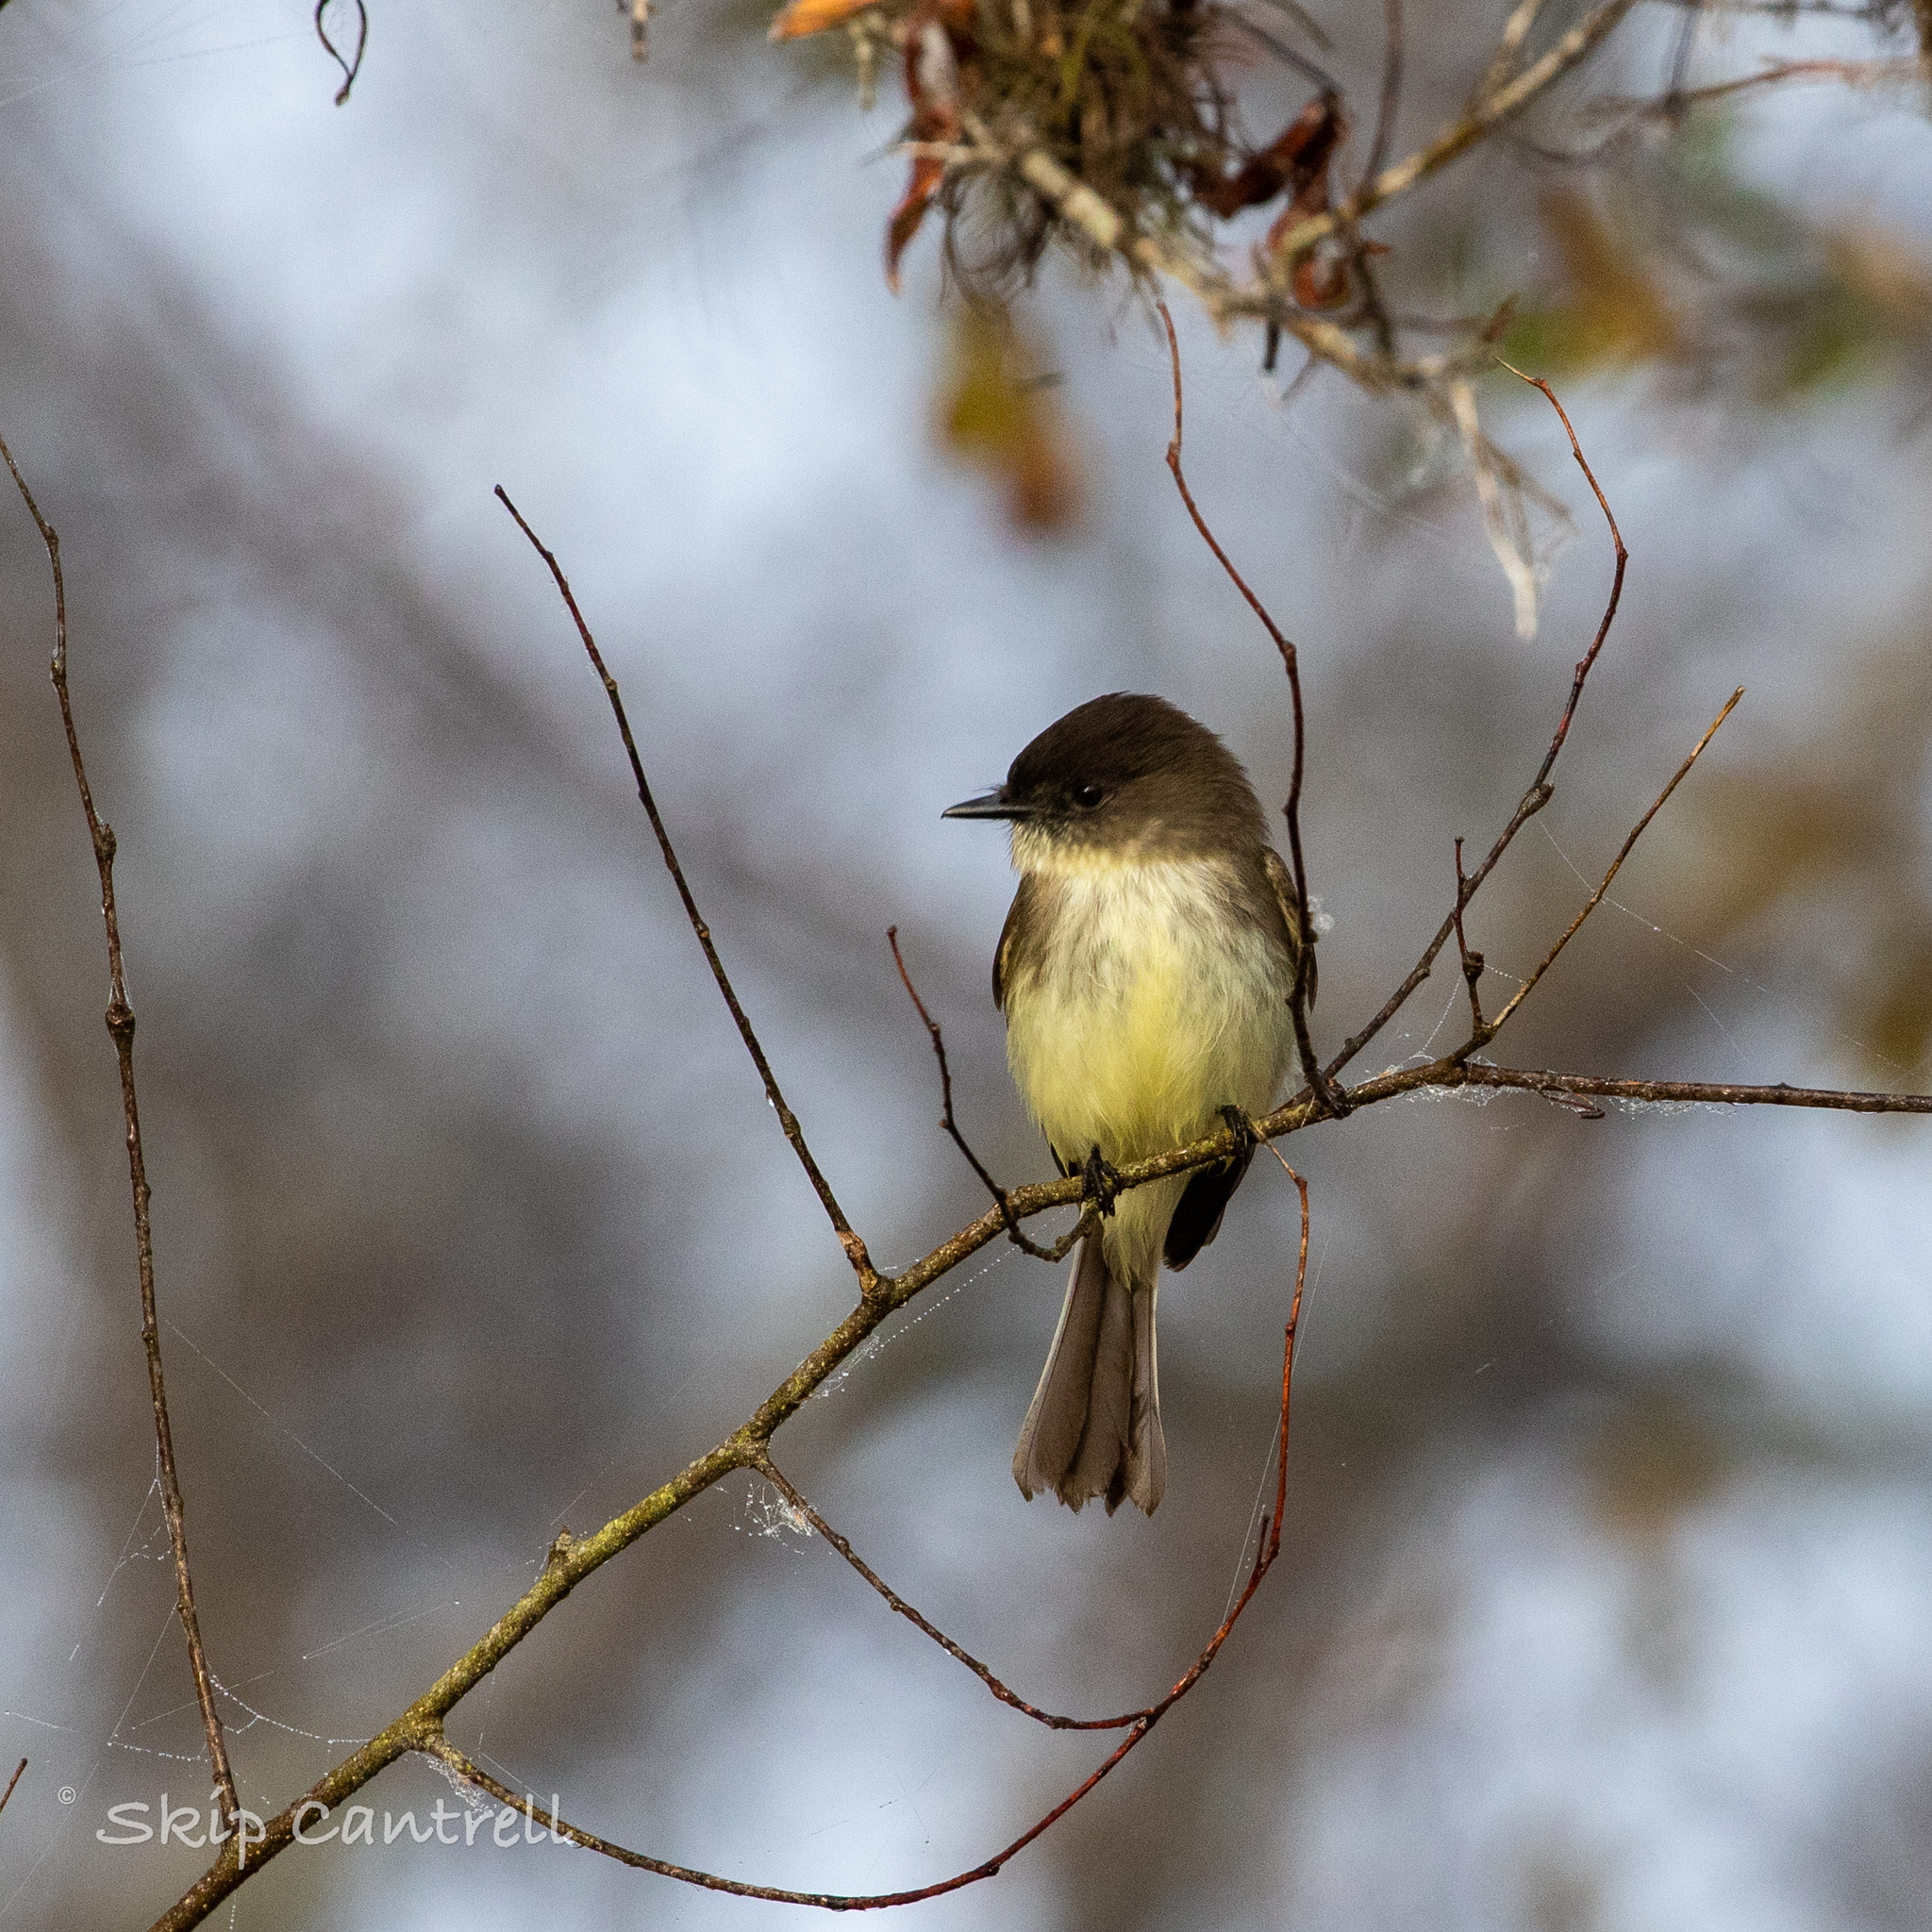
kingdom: Animalia
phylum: Chordata
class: Aves
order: Passeriformes
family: Tyrannidae
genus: Sayornis
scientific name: Sayornis phoebe
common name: Eastern phoebe
